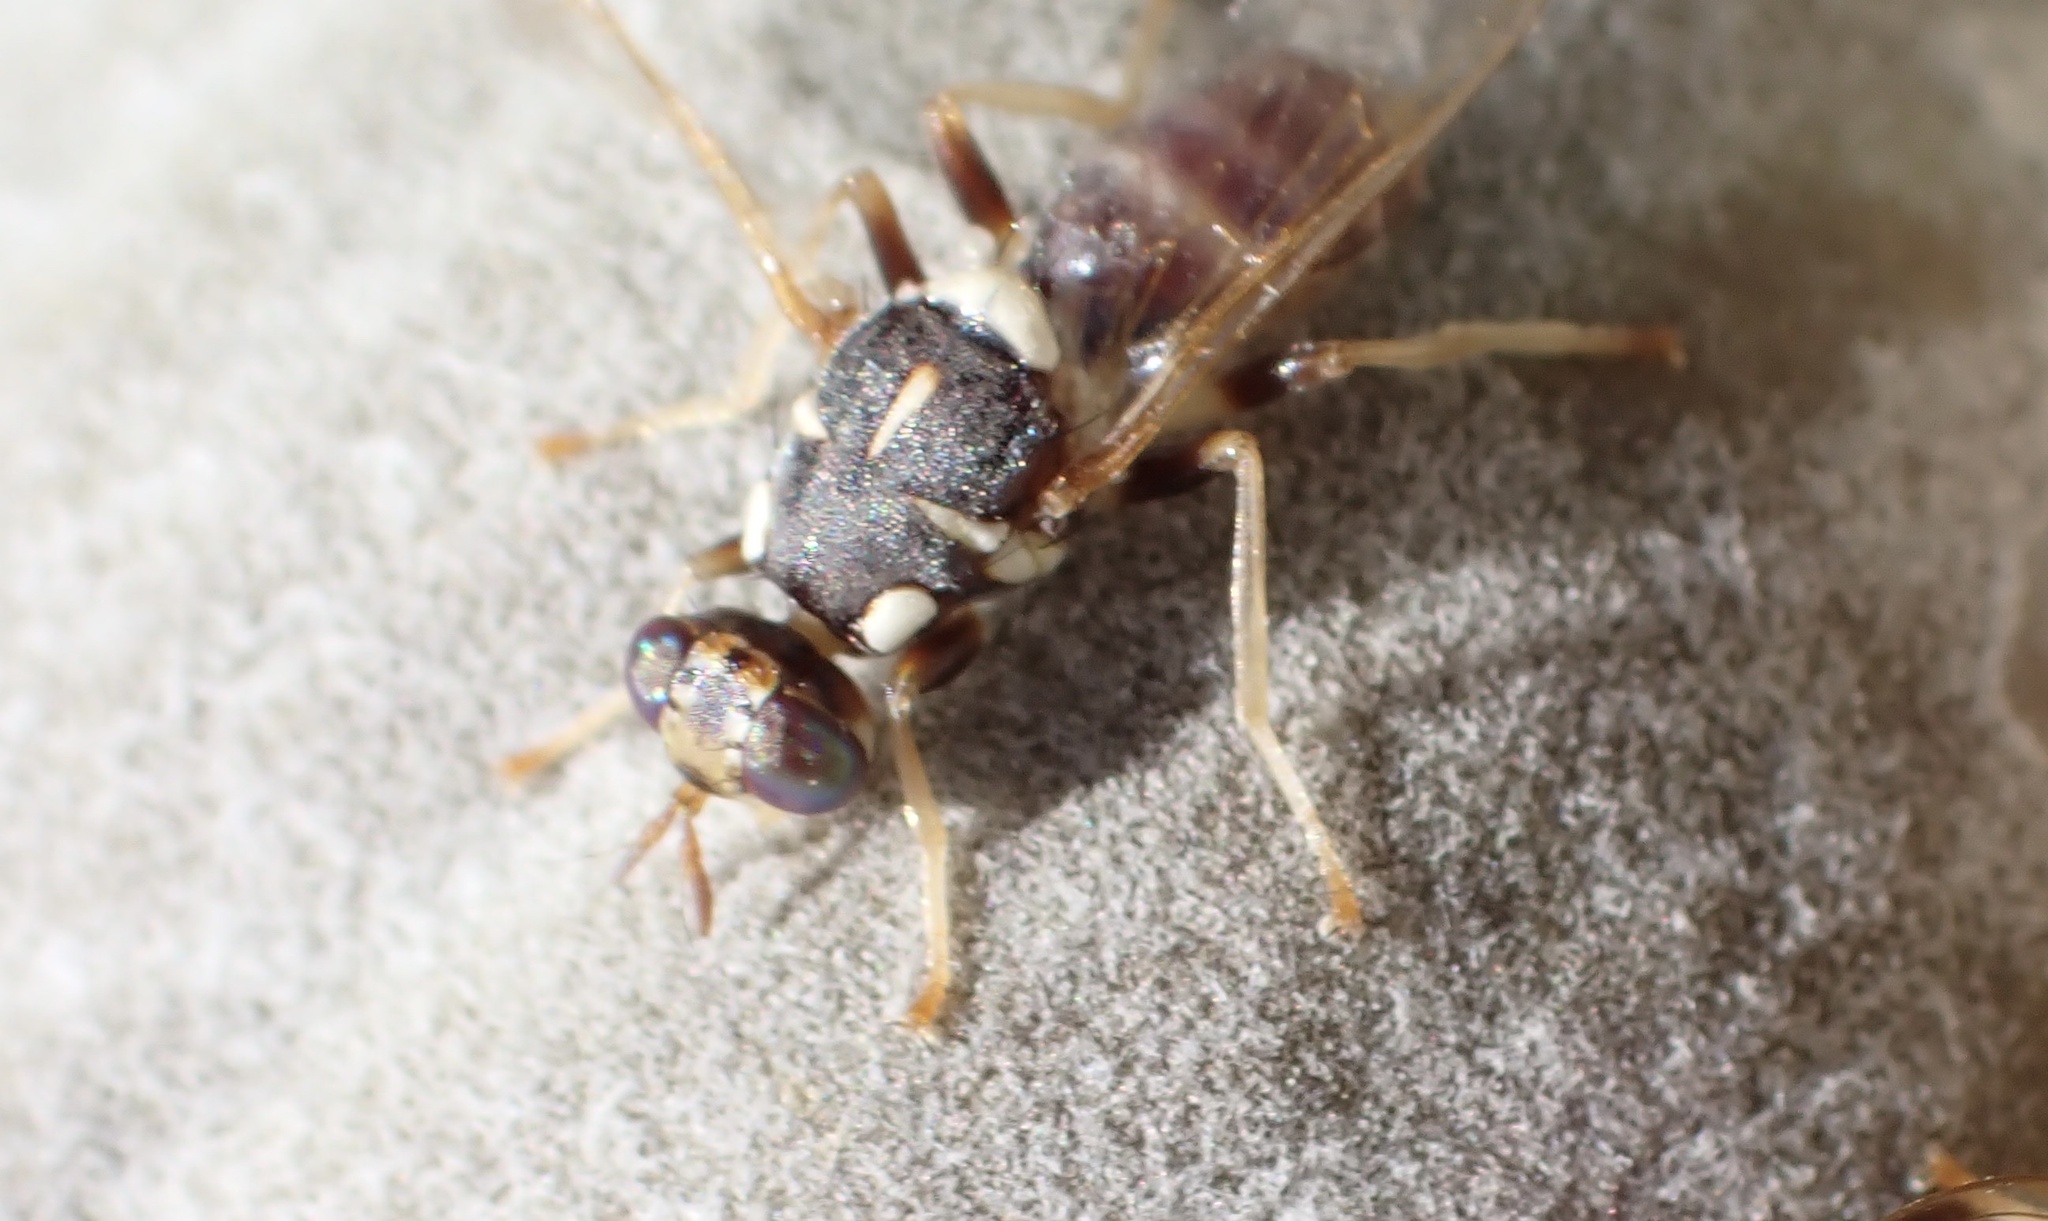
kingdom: Animalia
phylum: Arthropoda
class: Insecta
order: Diptera
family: Tephritidae
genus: Dacus
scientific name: Dacus longistylus
